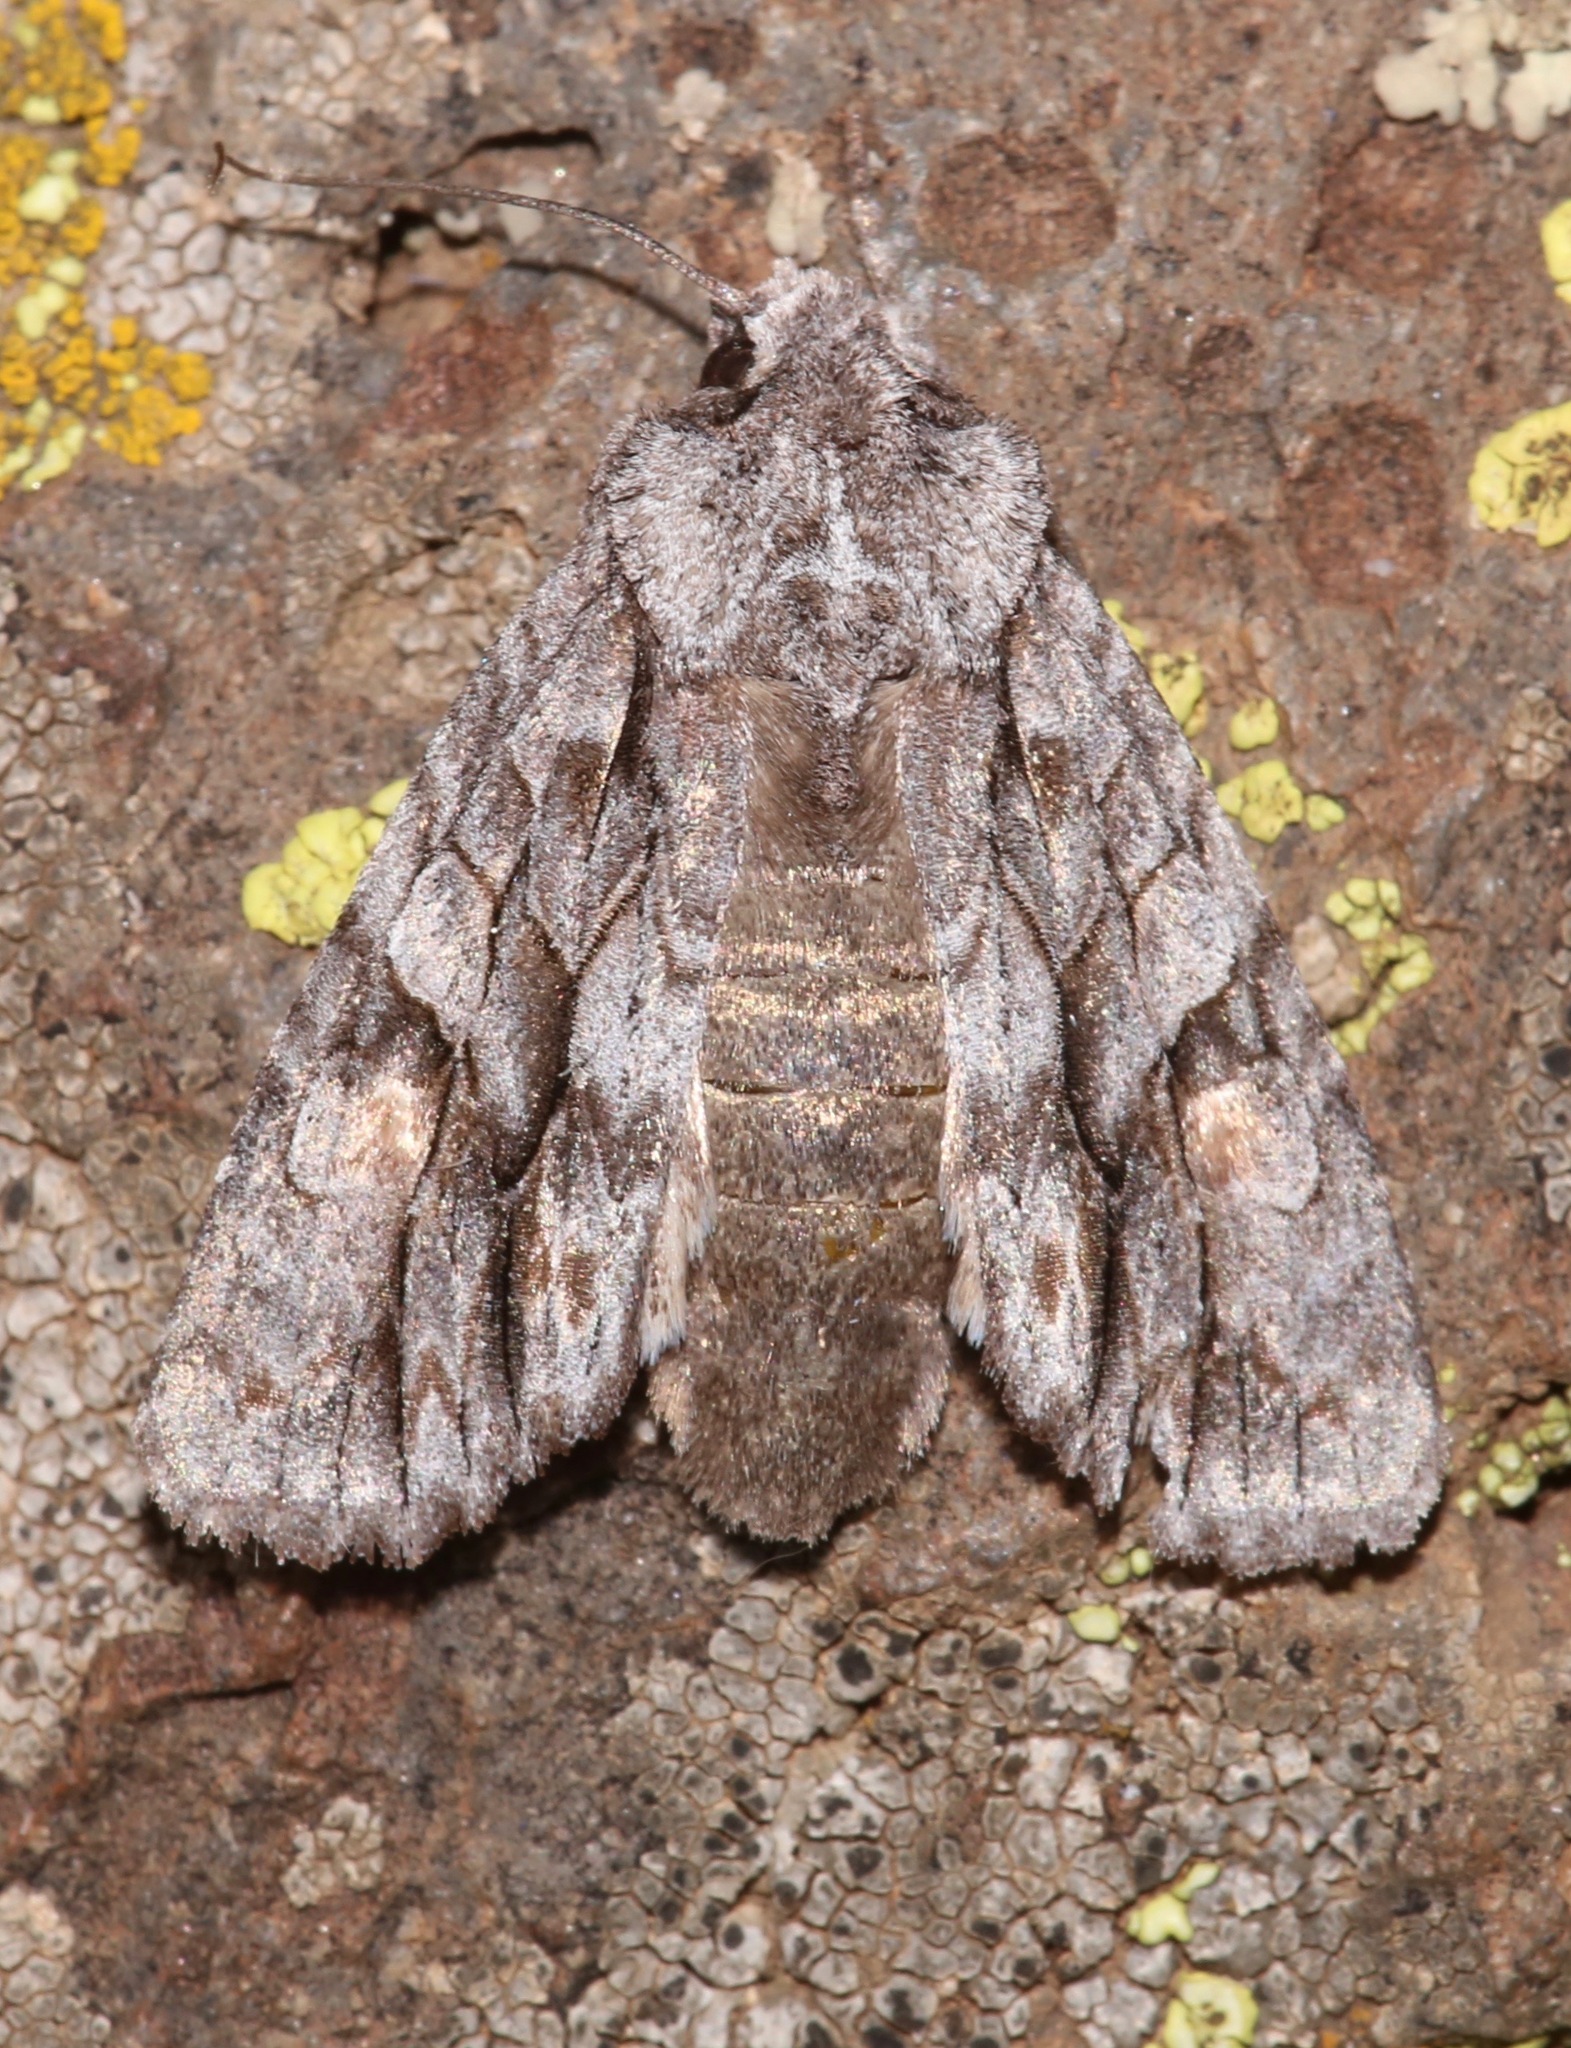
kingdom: Animalia
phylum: Arthropoda
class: Insecta
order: Lepidoptera
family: Noctuidae
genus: Lithophane
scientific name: Lithophane nasar
